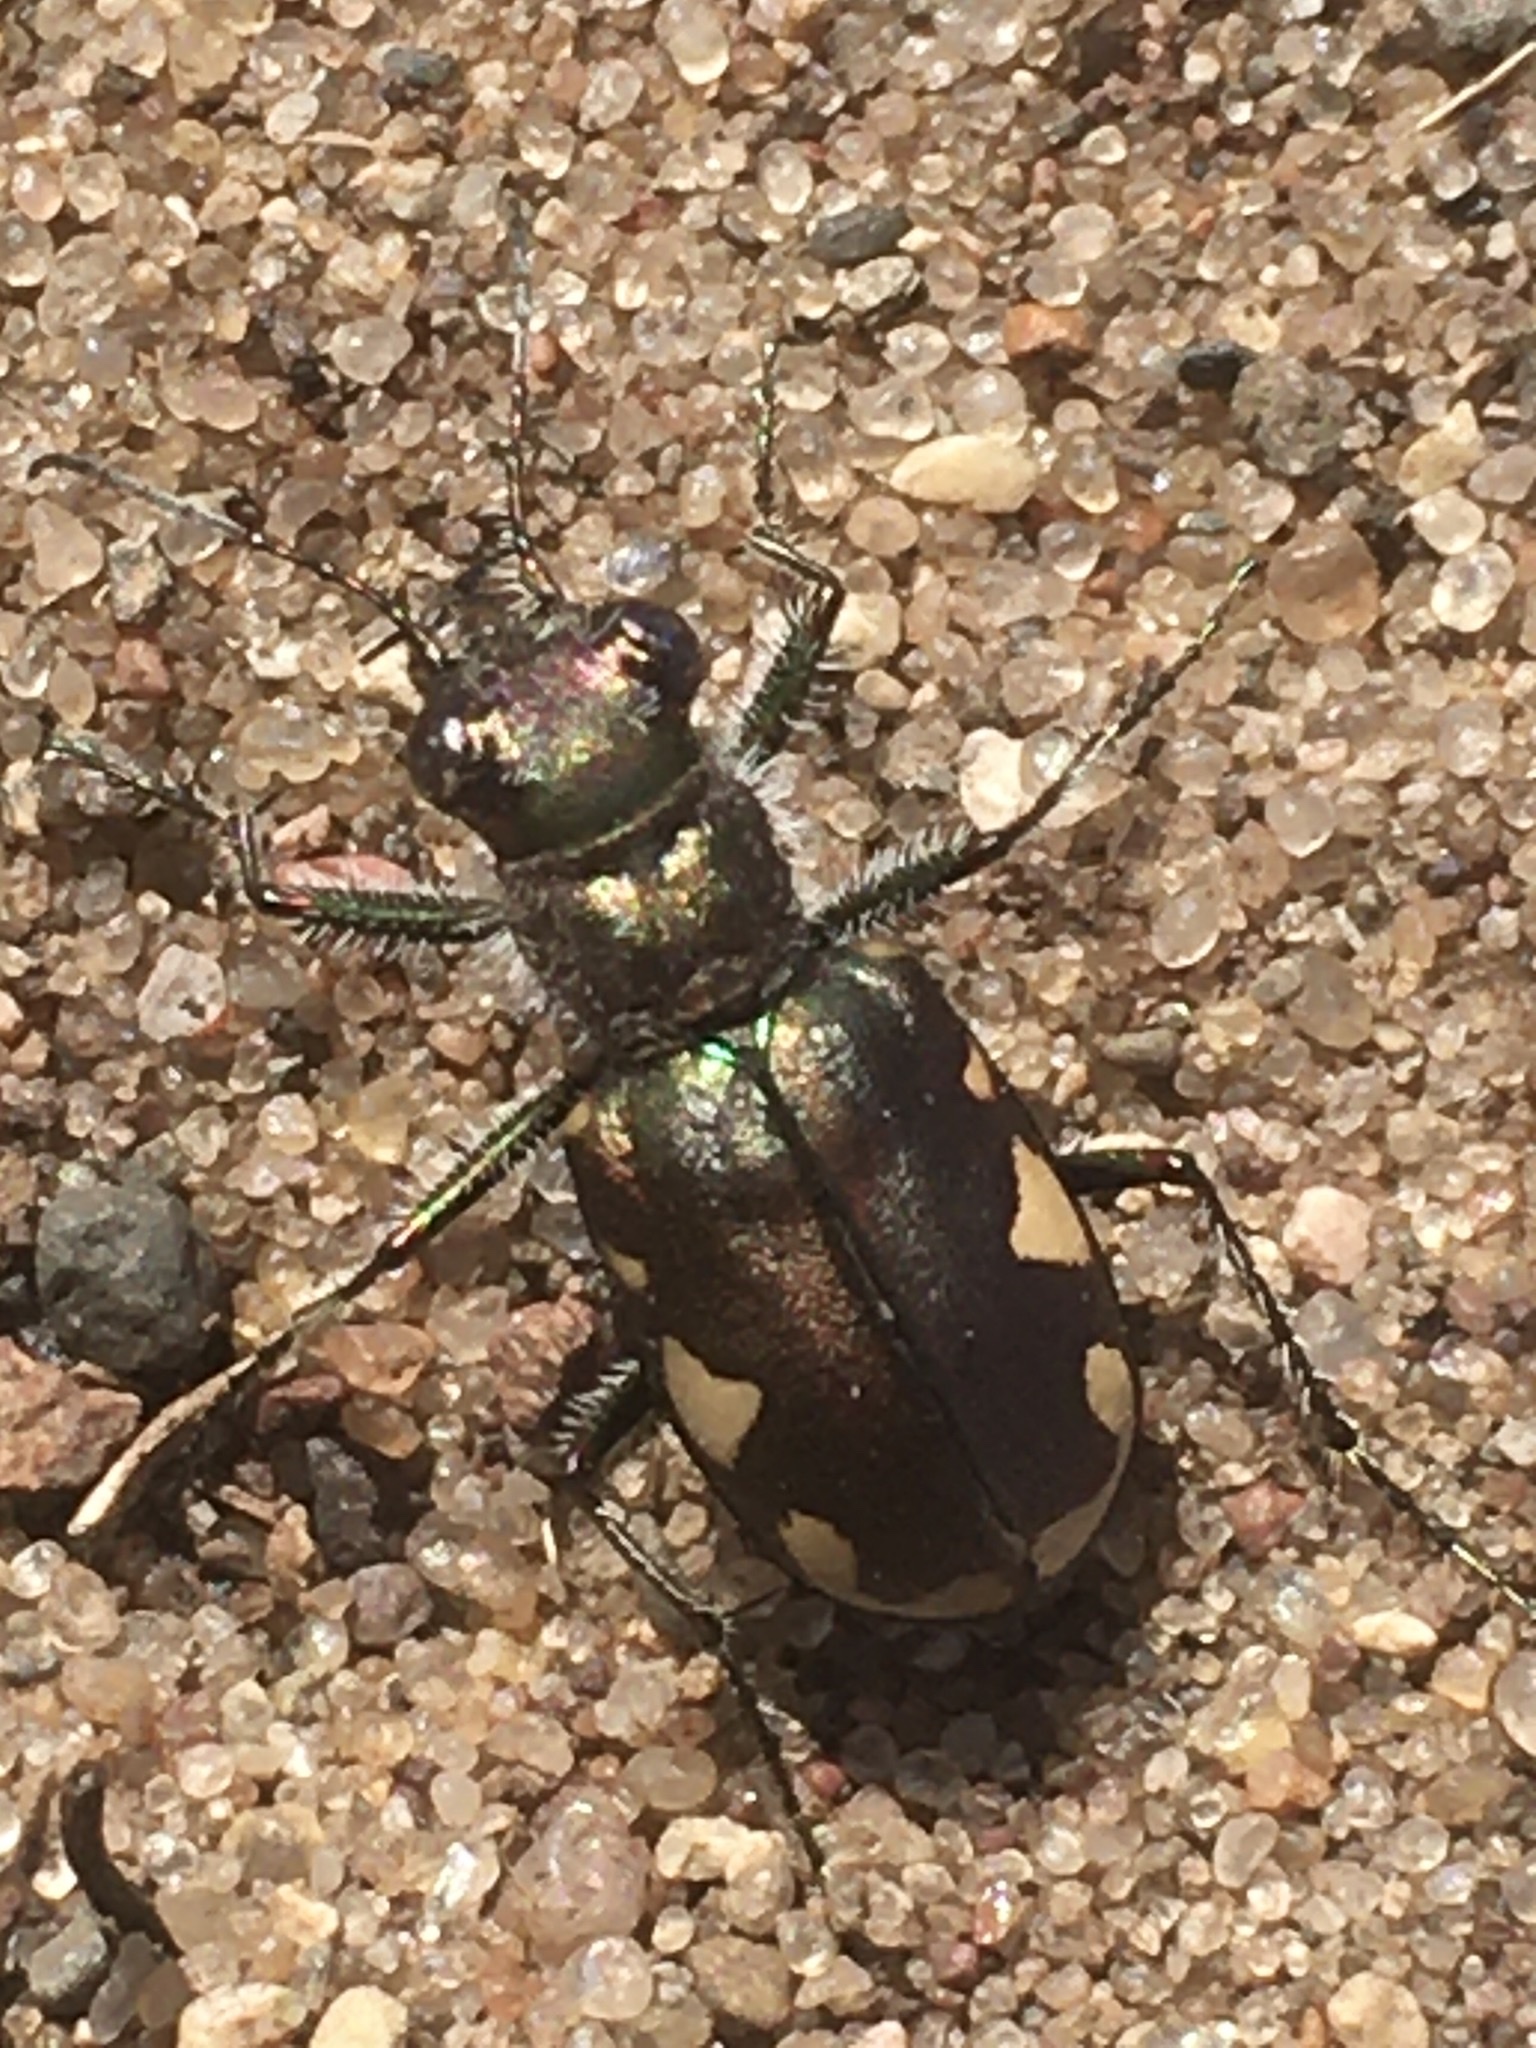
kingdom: Animalia
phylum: Arthropoda
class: Insecta
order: Coleoptera
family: Carabidae
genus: Cicindela
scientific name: Cicindela scutellaris
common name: Festive tiger beetle
